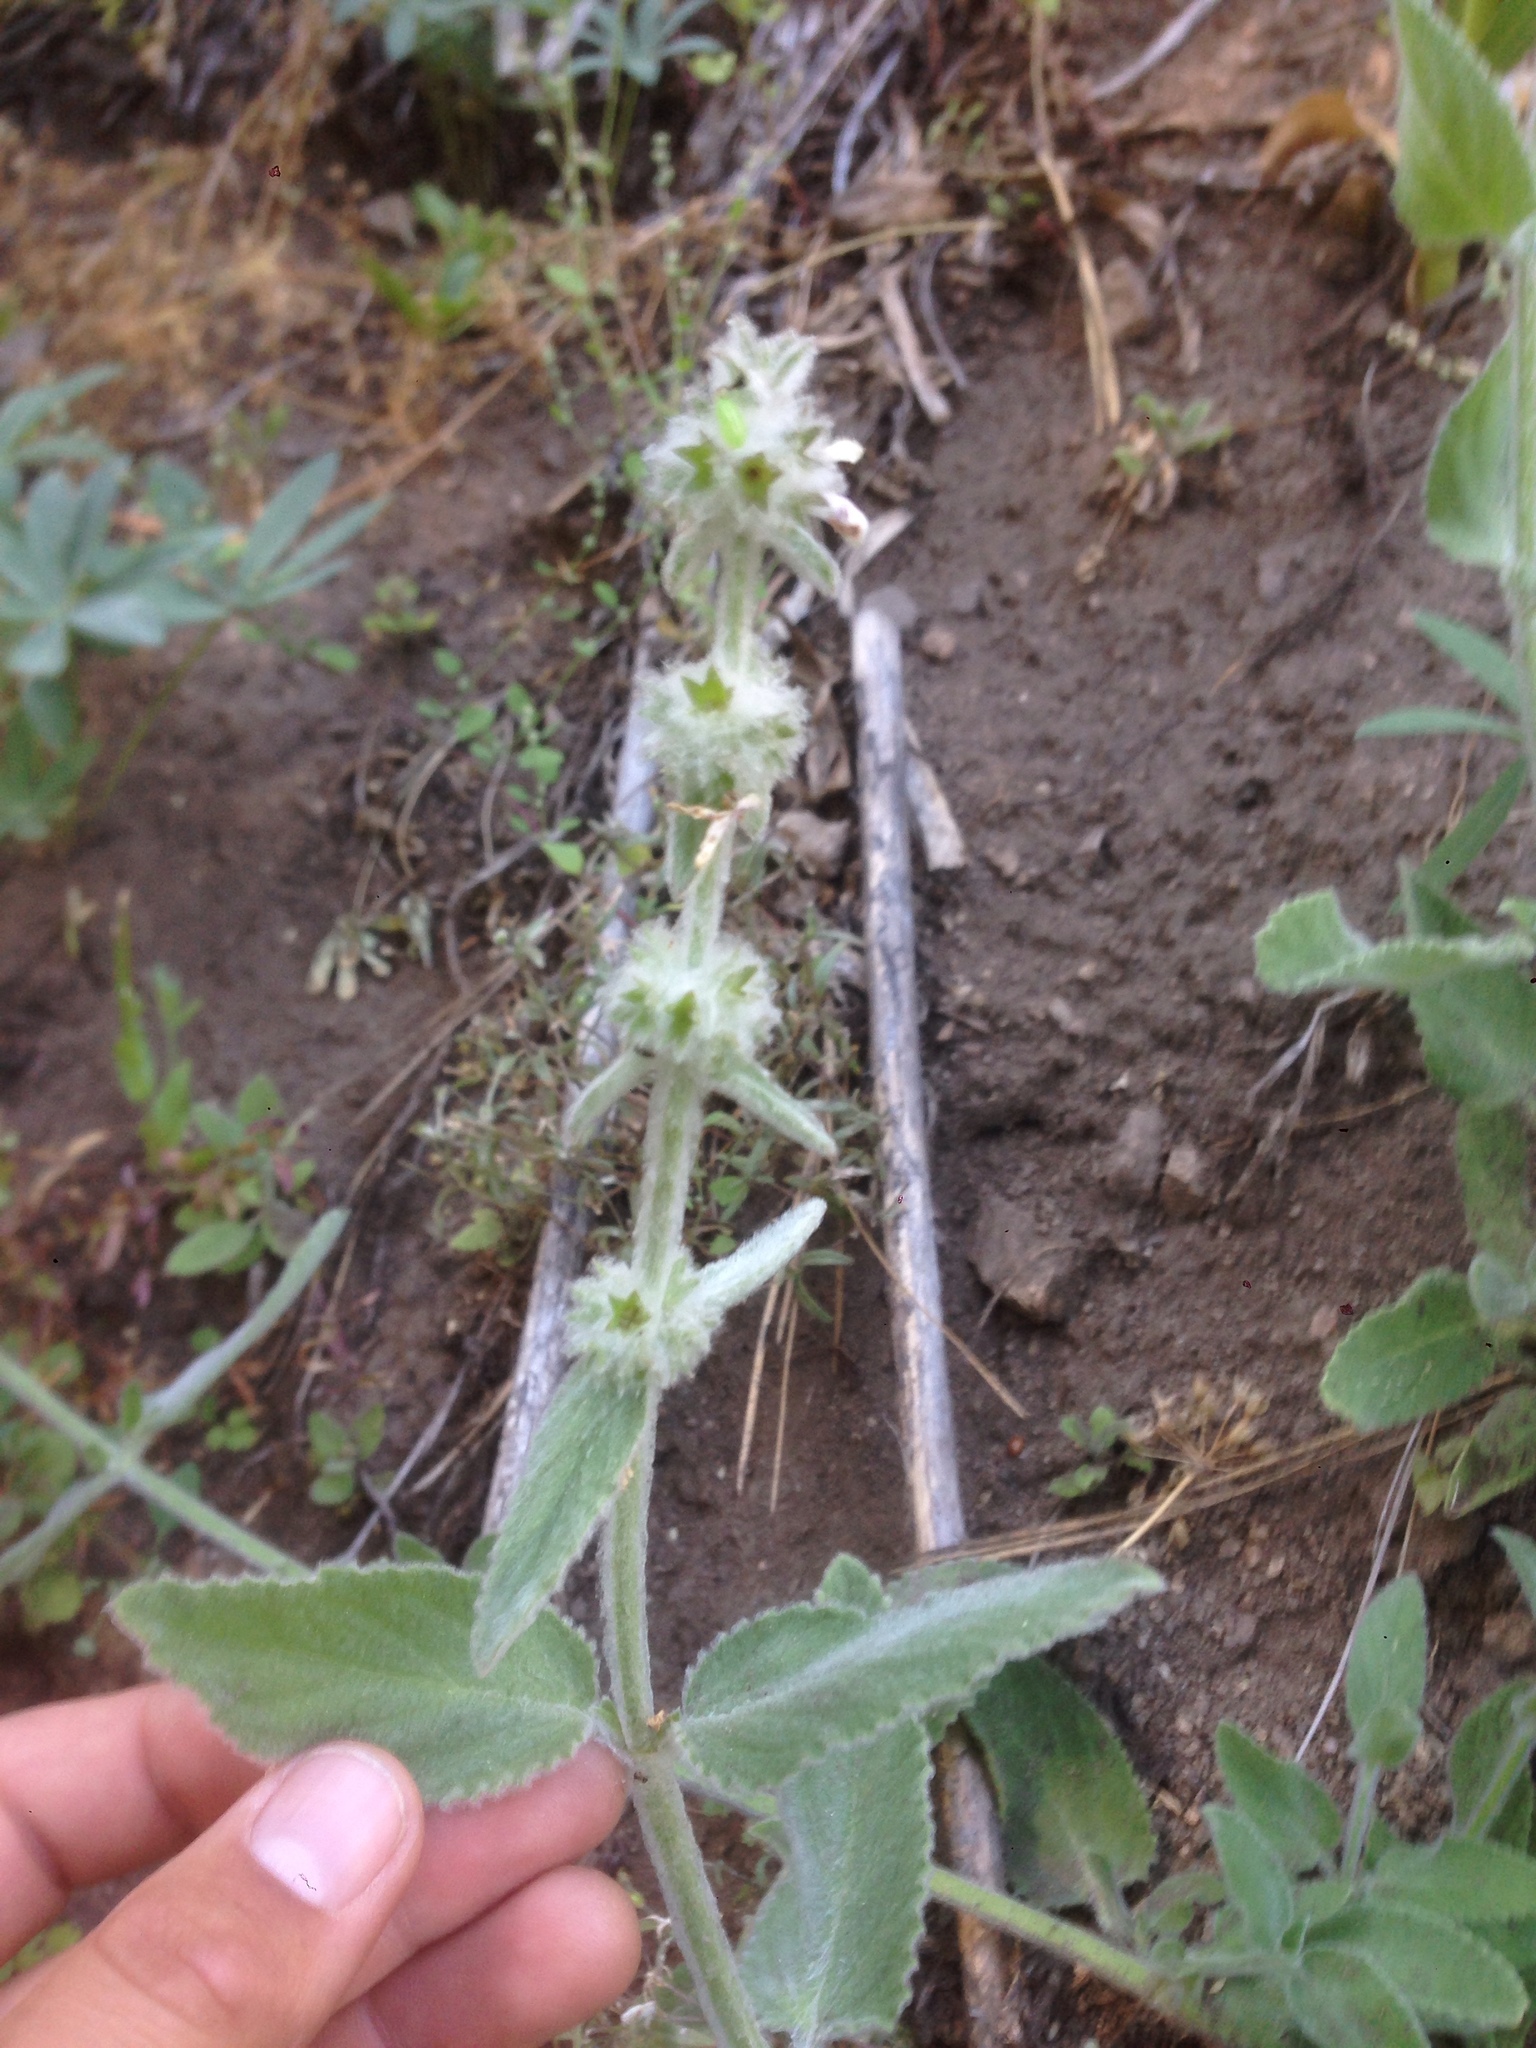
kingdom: Plantae
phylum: Tracheophyta
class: Magnoliopsida
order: Lamiales
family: Lamiaceae
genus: Stachys
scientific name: Stachys albens
